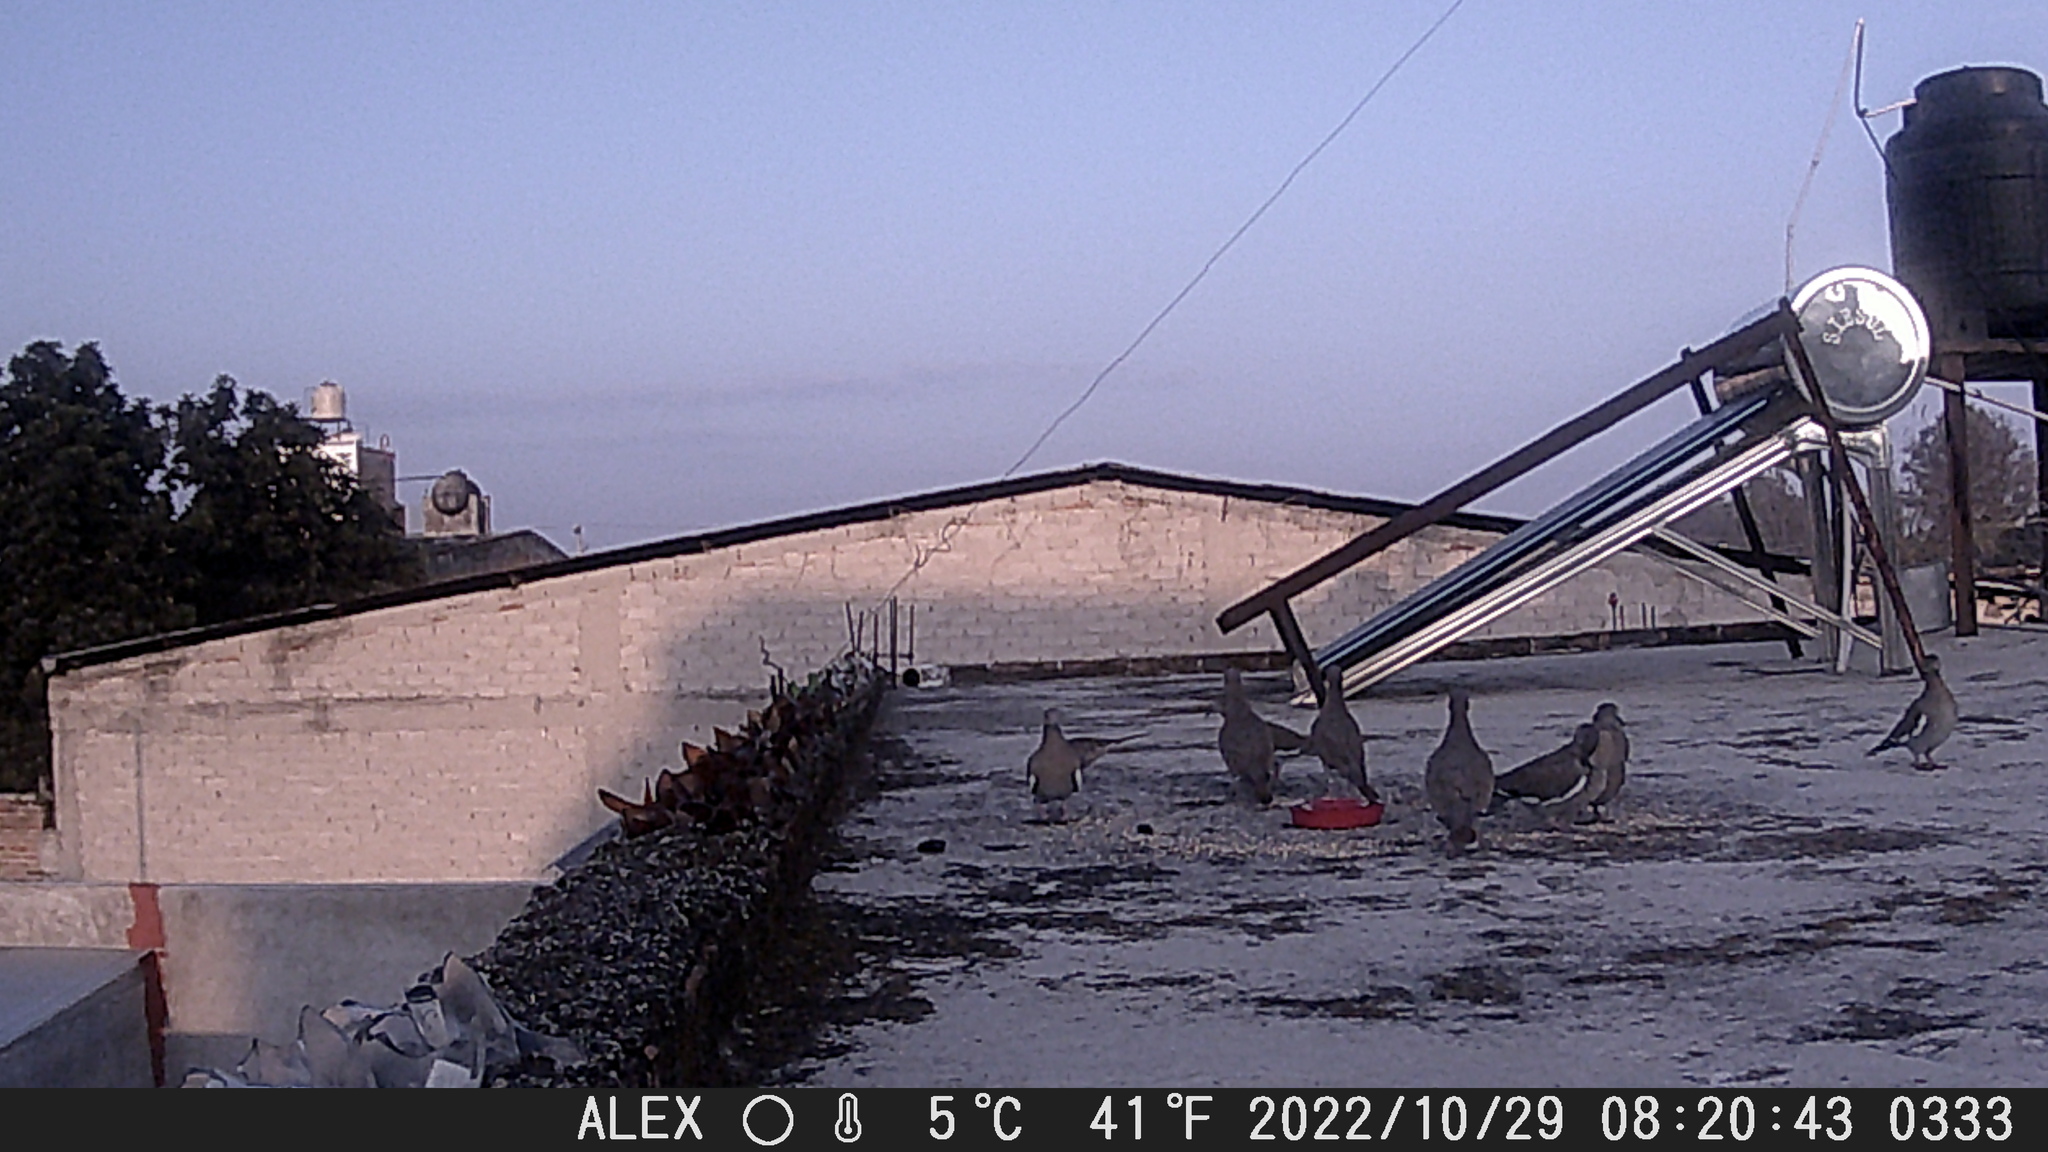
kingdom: Animalia
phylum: Chordata
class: Aves
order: Columbiformes
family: Columbidae
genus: Zenaida
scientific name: Zenaida asiatica
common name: White-winged dove
